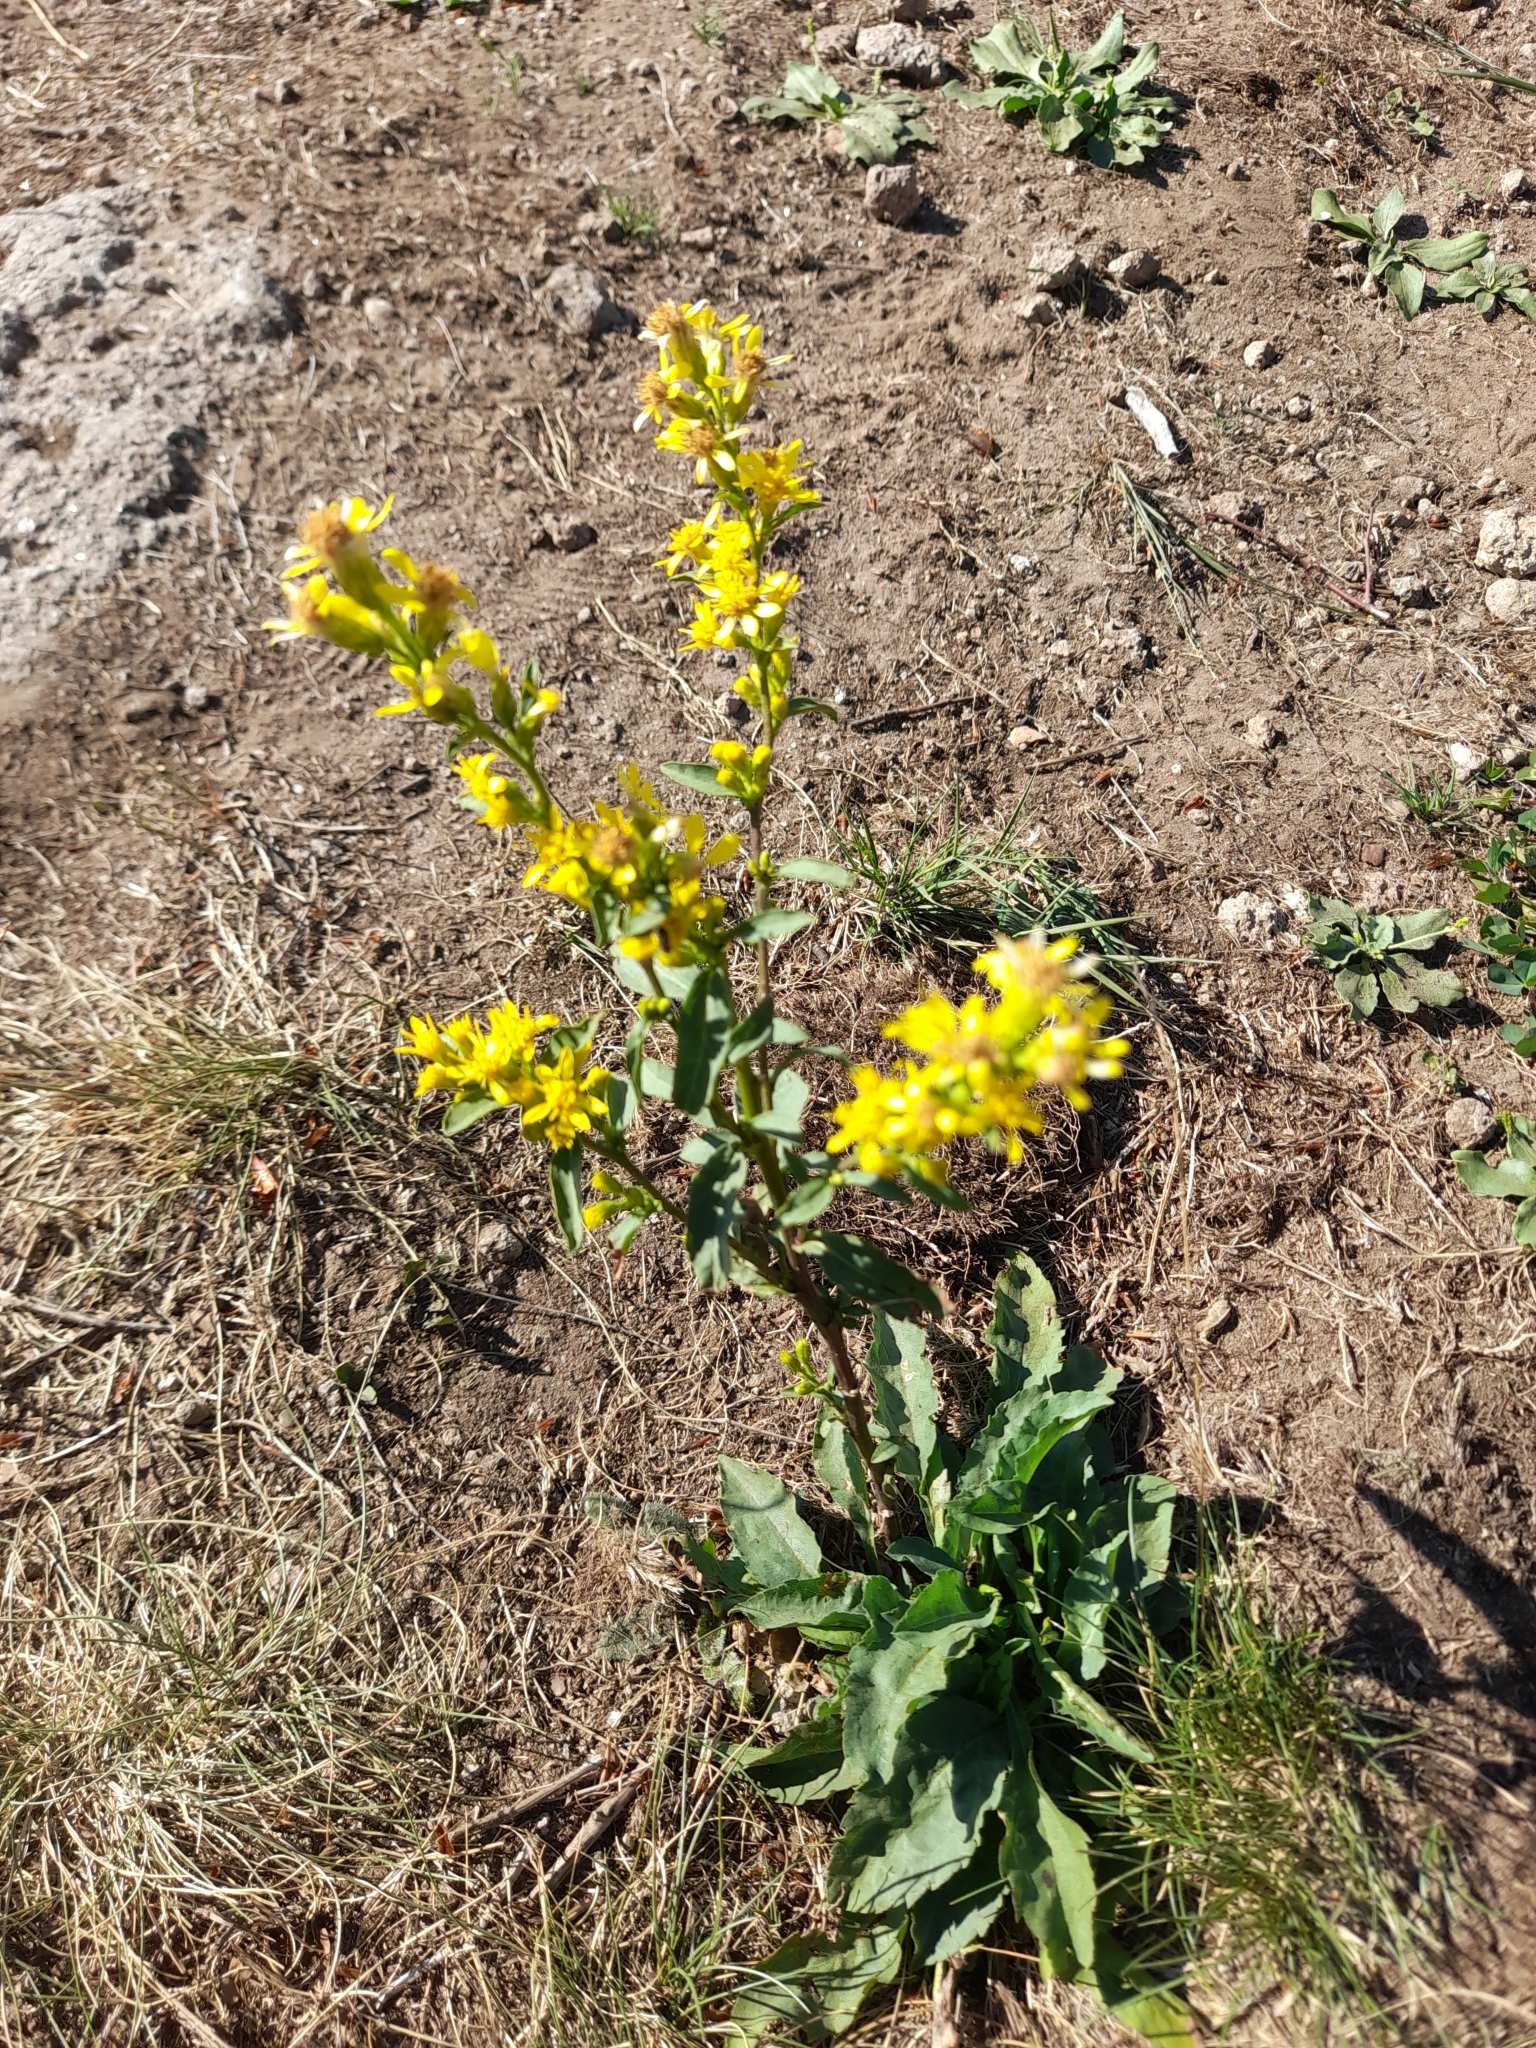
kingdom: Plantae
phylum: Tracheophyta
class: Magnoliopsida
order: Asterales
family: Asteraceae
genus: Solidago
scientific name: Solidago virgaurea
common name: Goldenrod
